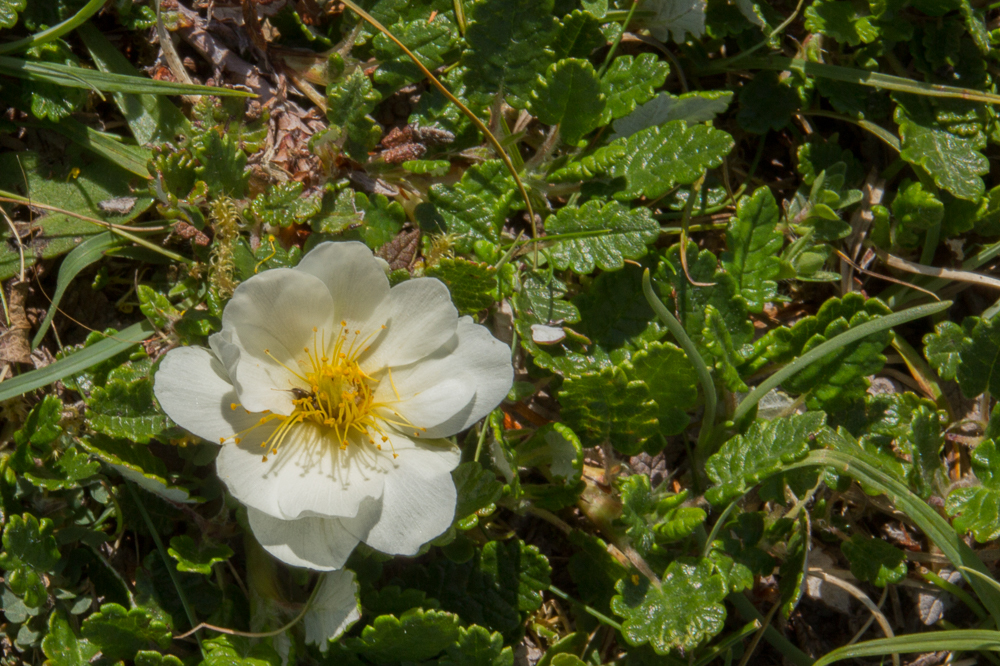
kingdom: Plantae
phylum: Tracheophyta
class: Magnoliopsida
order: Rosales
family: Rosaceae
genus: Dryas
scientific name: Dryas octopetala
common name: Eight-petal mountain-avens
